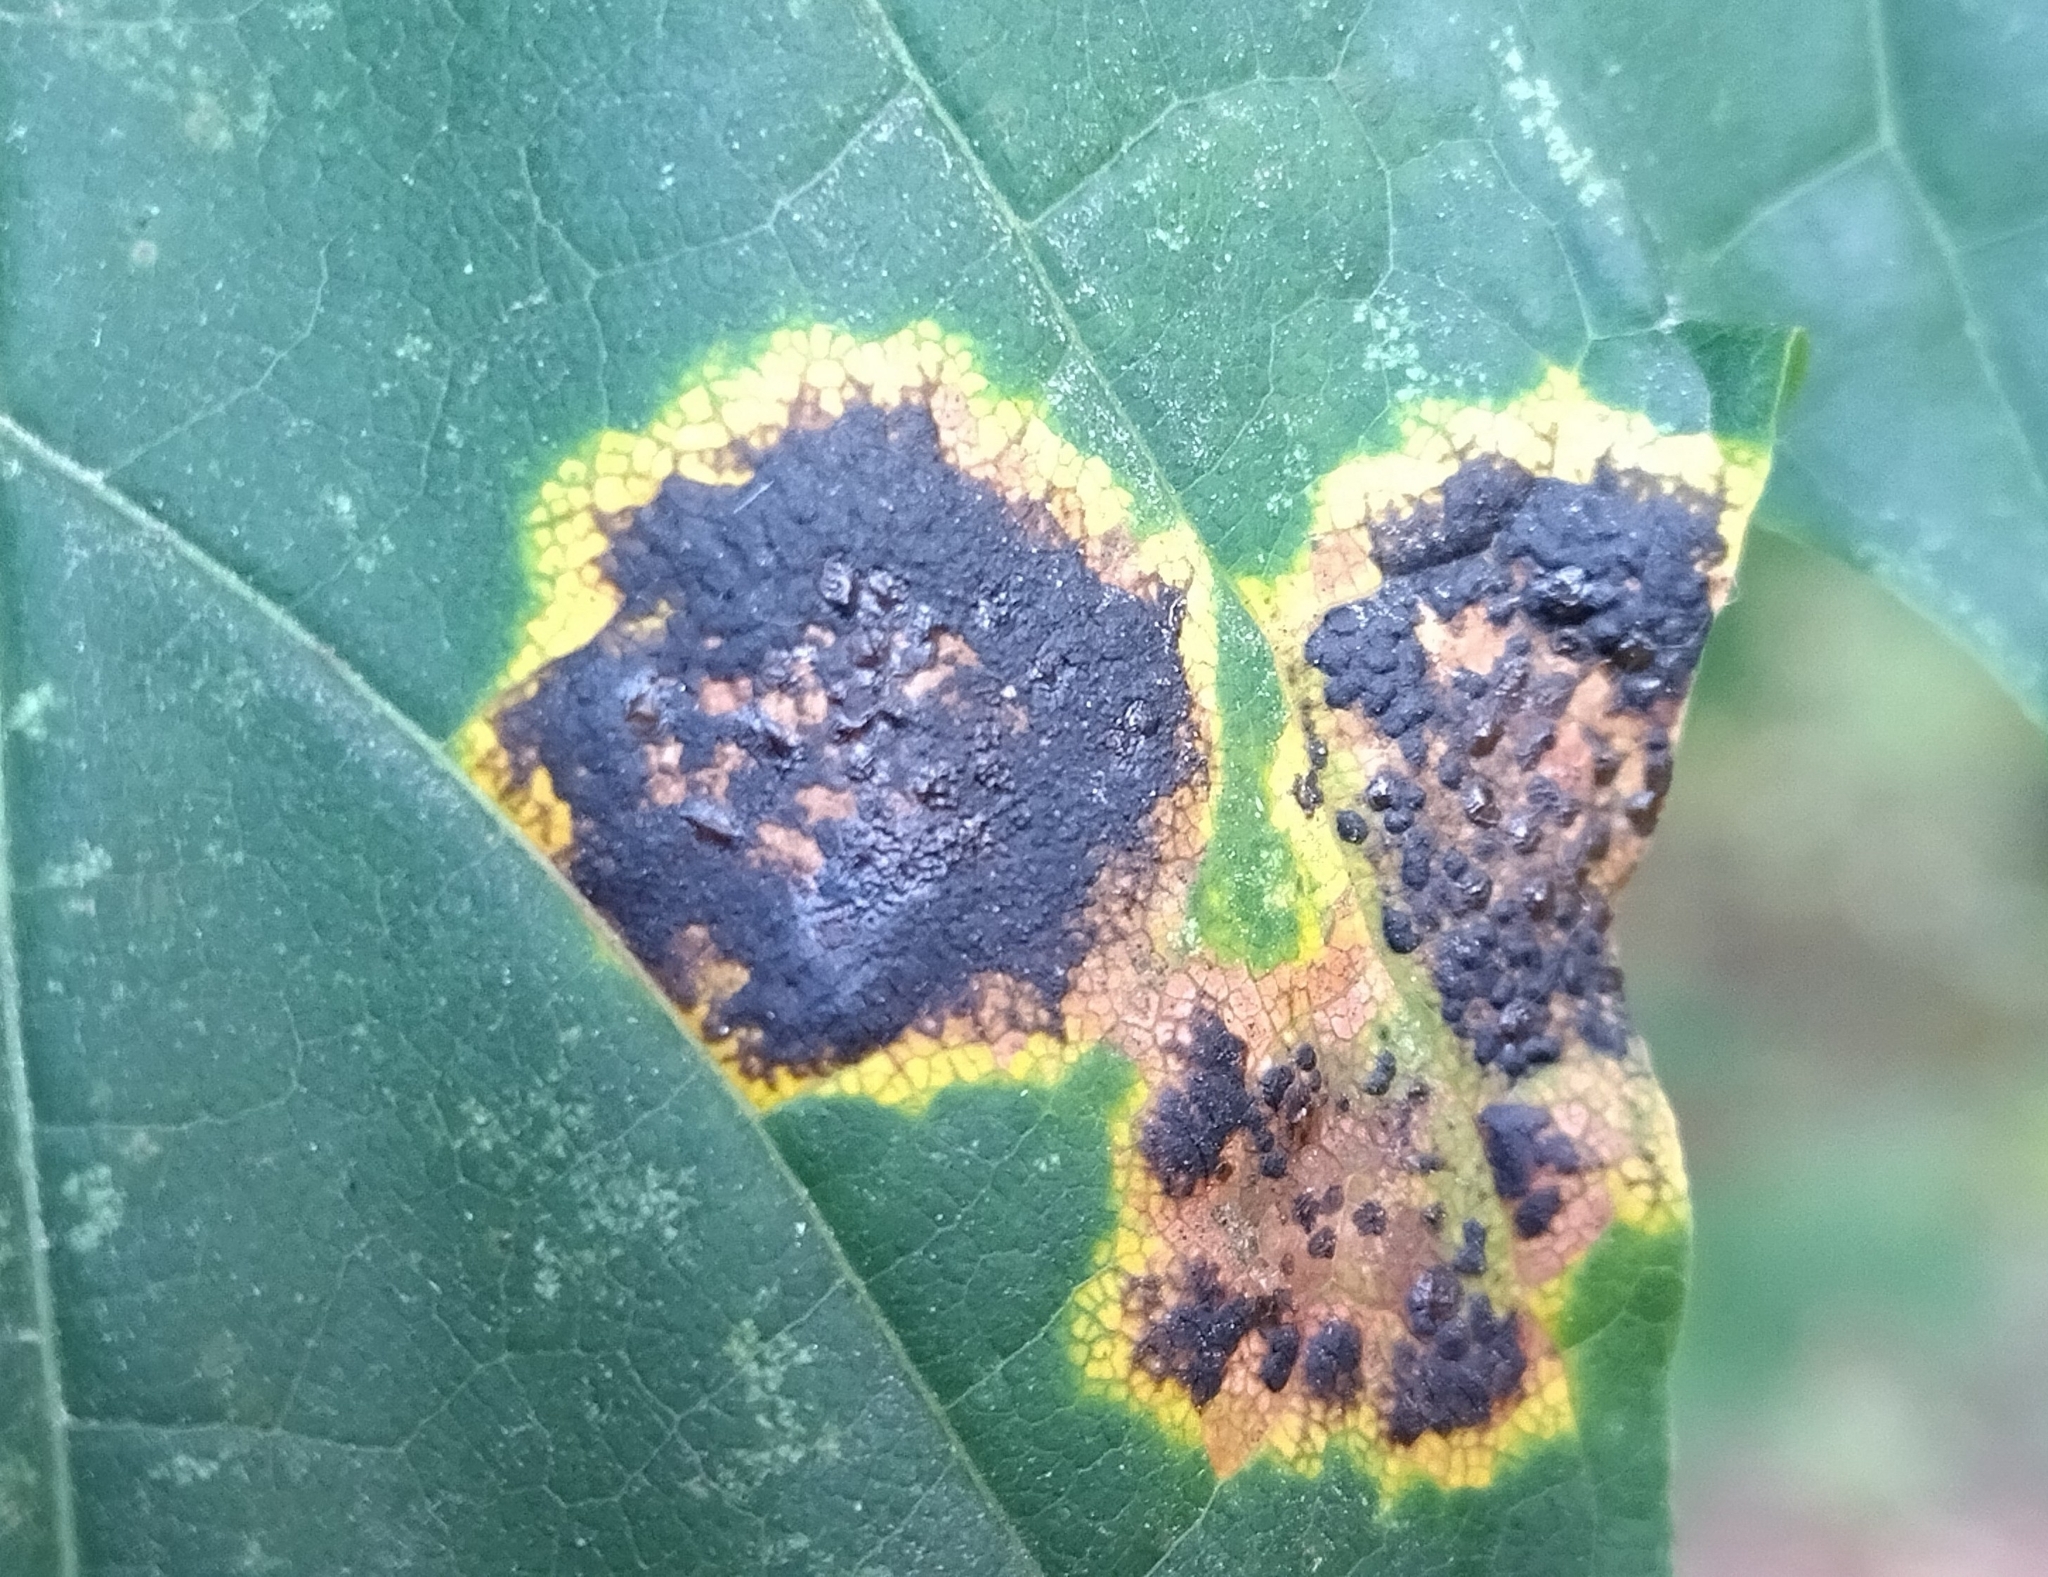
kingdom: Fungi
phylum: Ascomycota
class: Leotiomycetes
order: Rhytismatales
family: Rhytismataceae
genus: Rhytisma
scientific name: Rhytisma acerinum
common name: European tar spot
